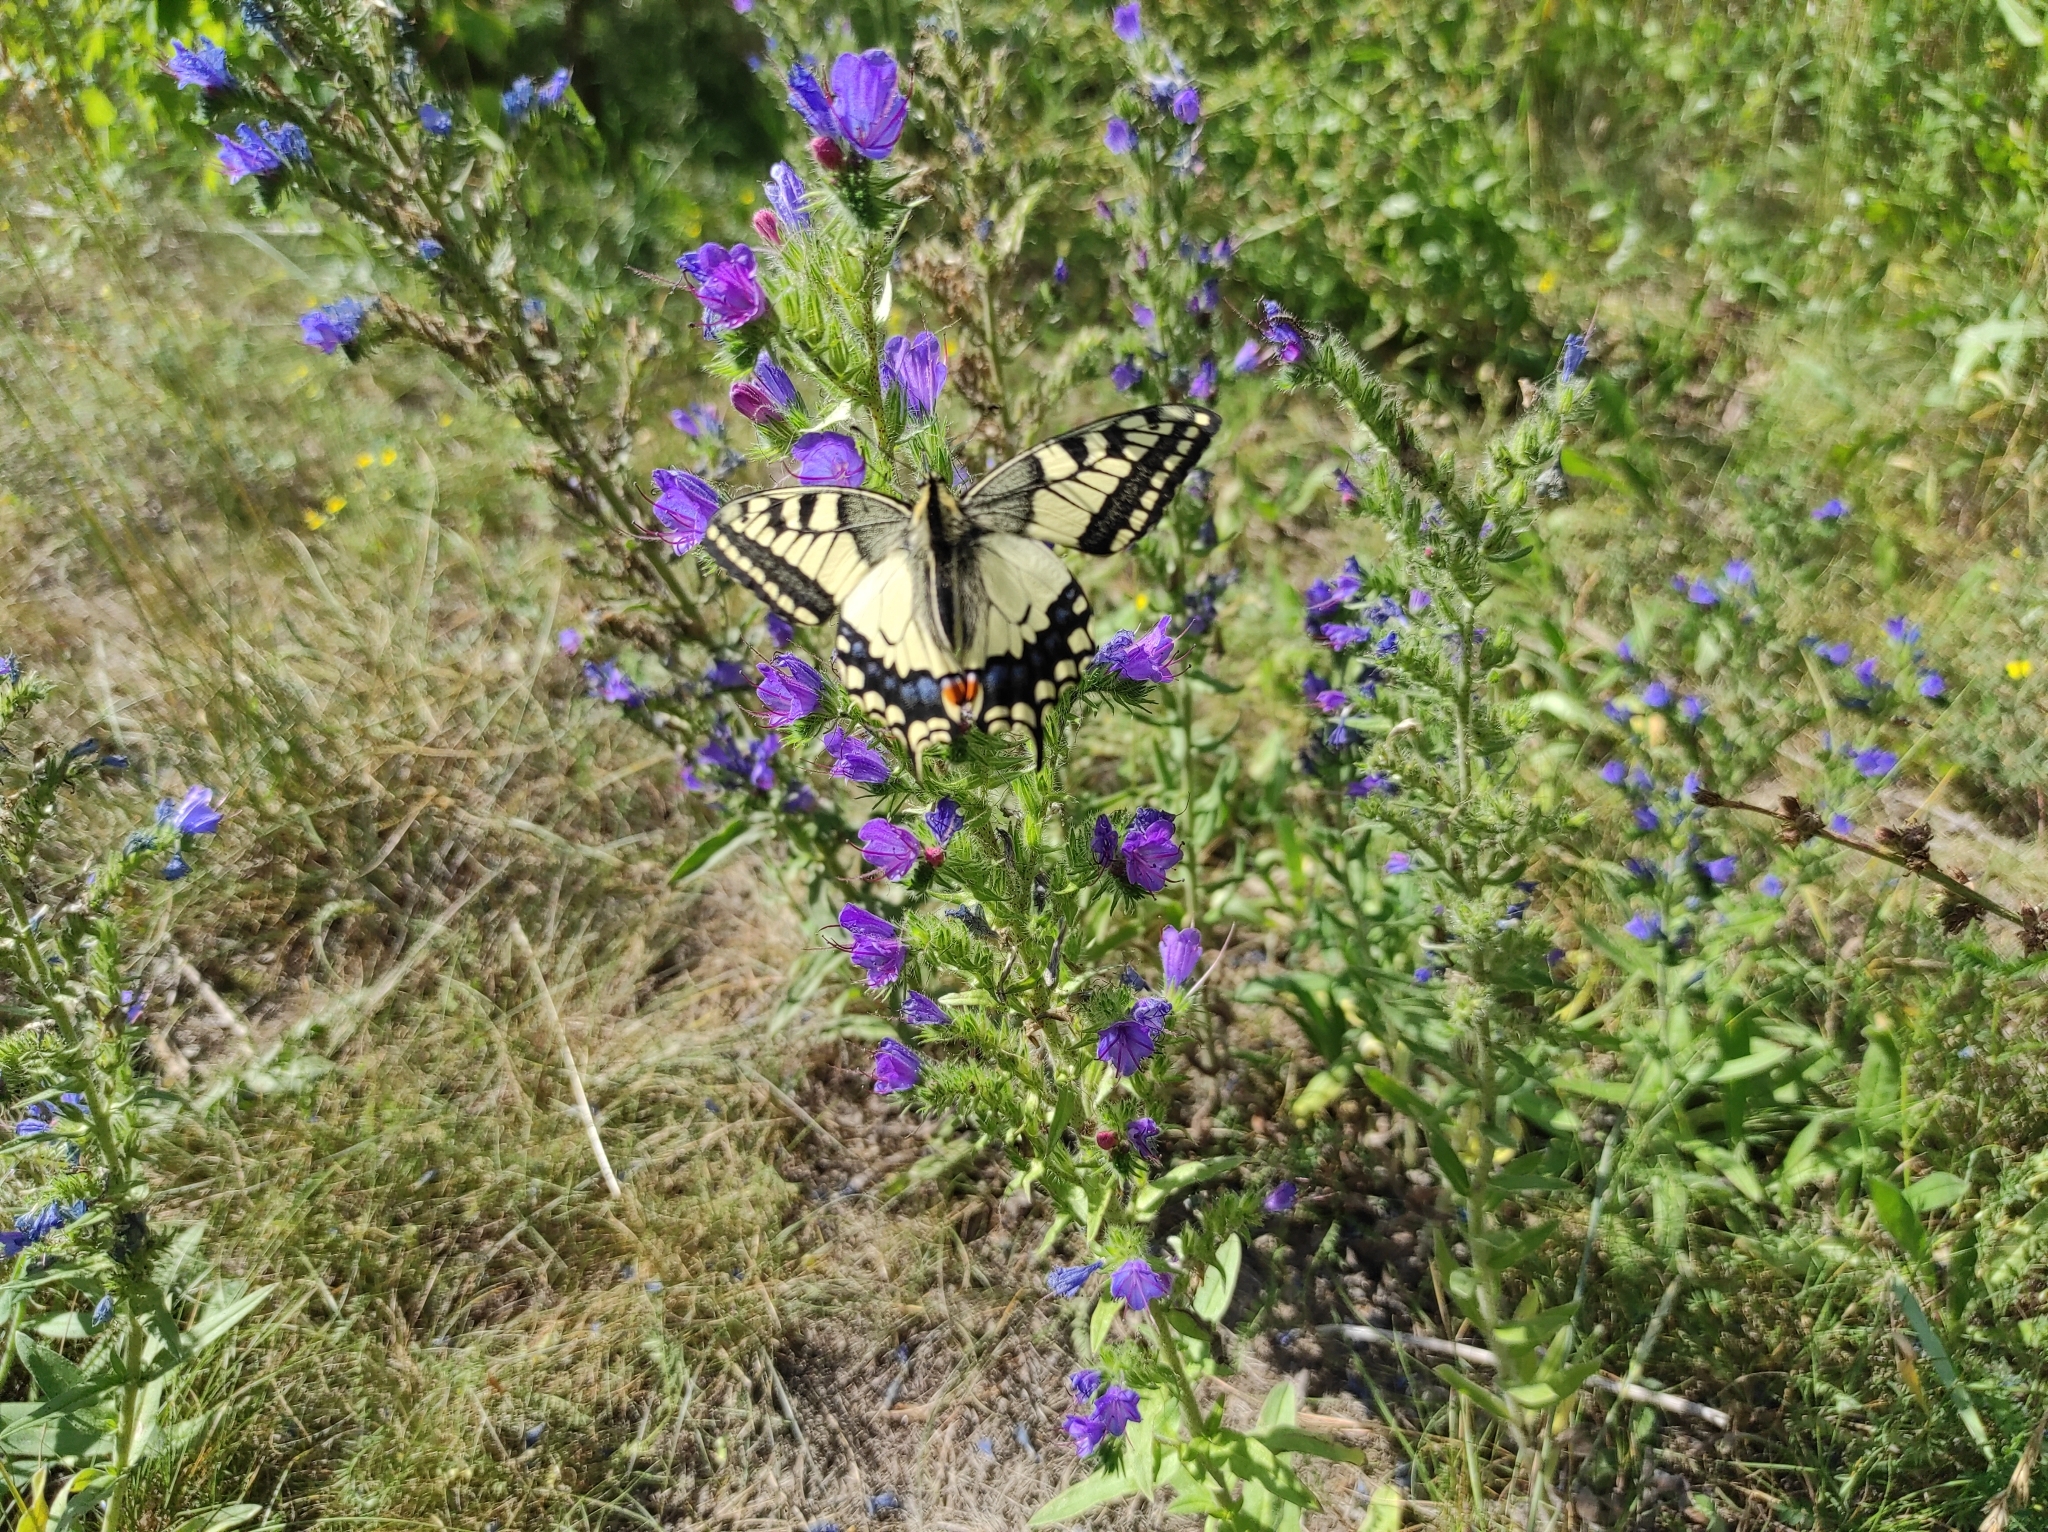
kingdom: Plantae
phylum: Tracheophyta
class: Magnoliopsida
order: Boraginales
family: Boraginaceae
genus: Echium
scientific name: Echium vulgare
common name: Common viper's bugloss
